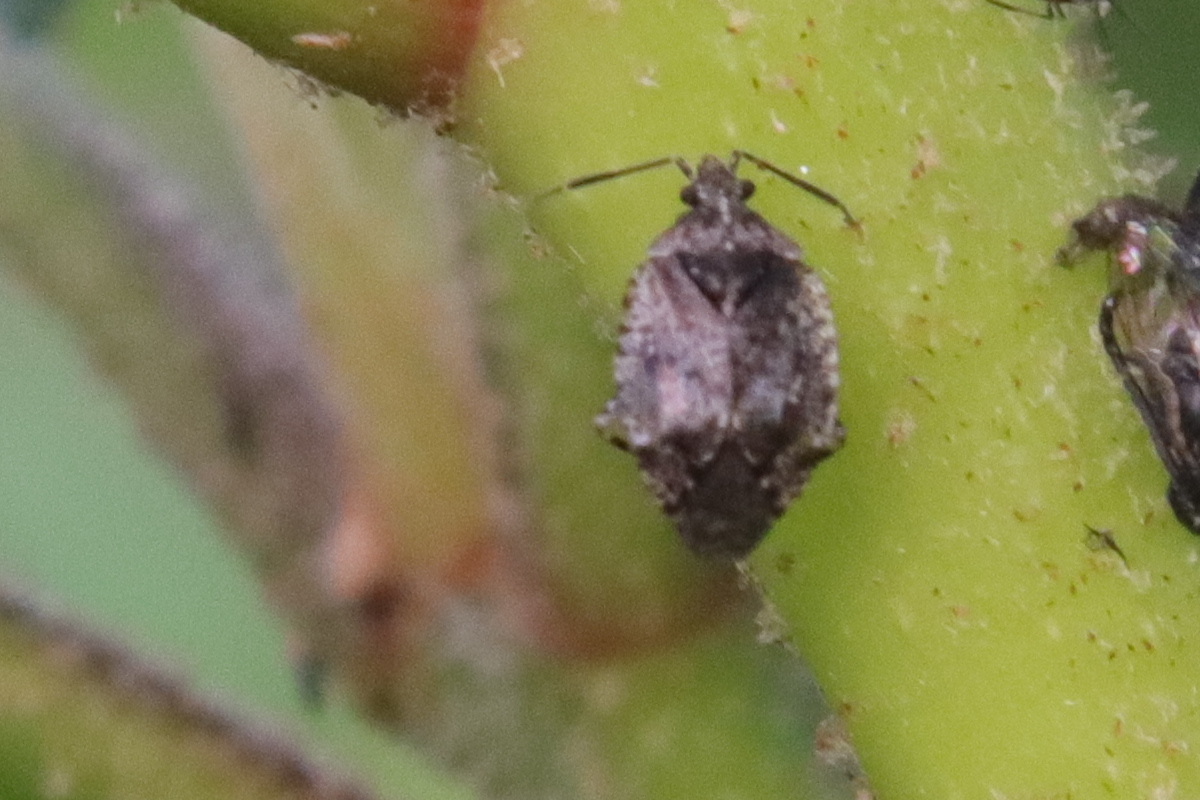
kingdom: Animalia
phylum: Arthropoda
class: Insecta
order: Hemiptera
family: Miridae
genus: Reuda
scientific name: Reuda mayri
